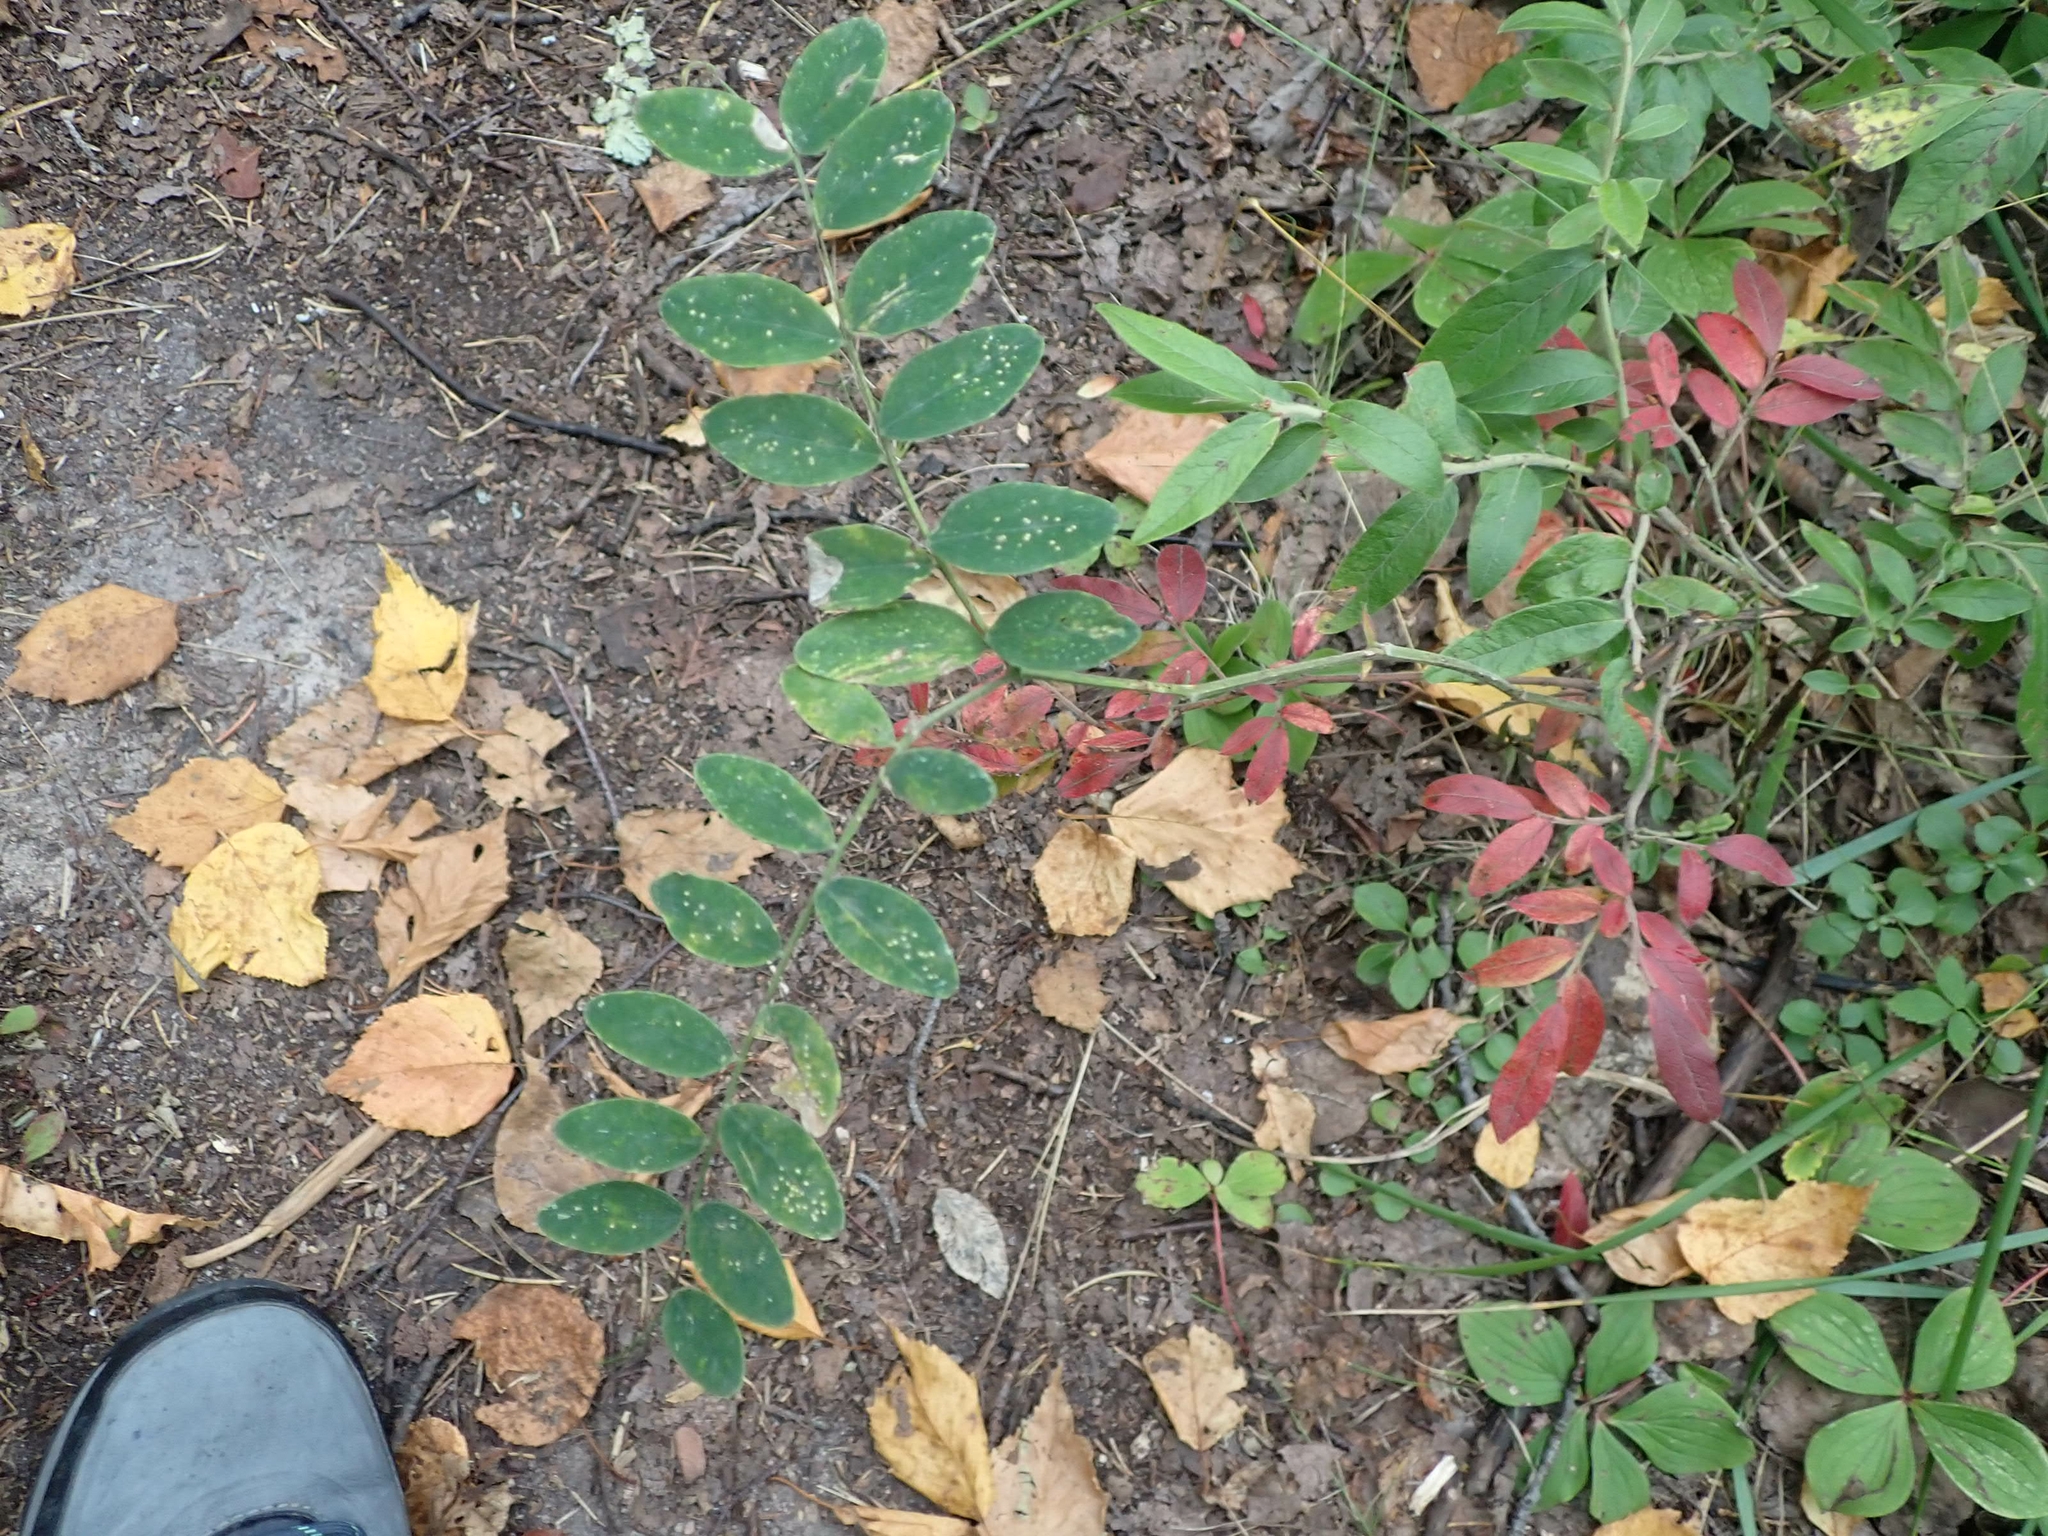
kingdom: Plantae
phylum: Tracheophyta
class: Magnoliopsida
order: Fabales
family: Fabaceae
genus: Lathyrus
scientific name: Lathyrus venosus
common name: Forest-pea
